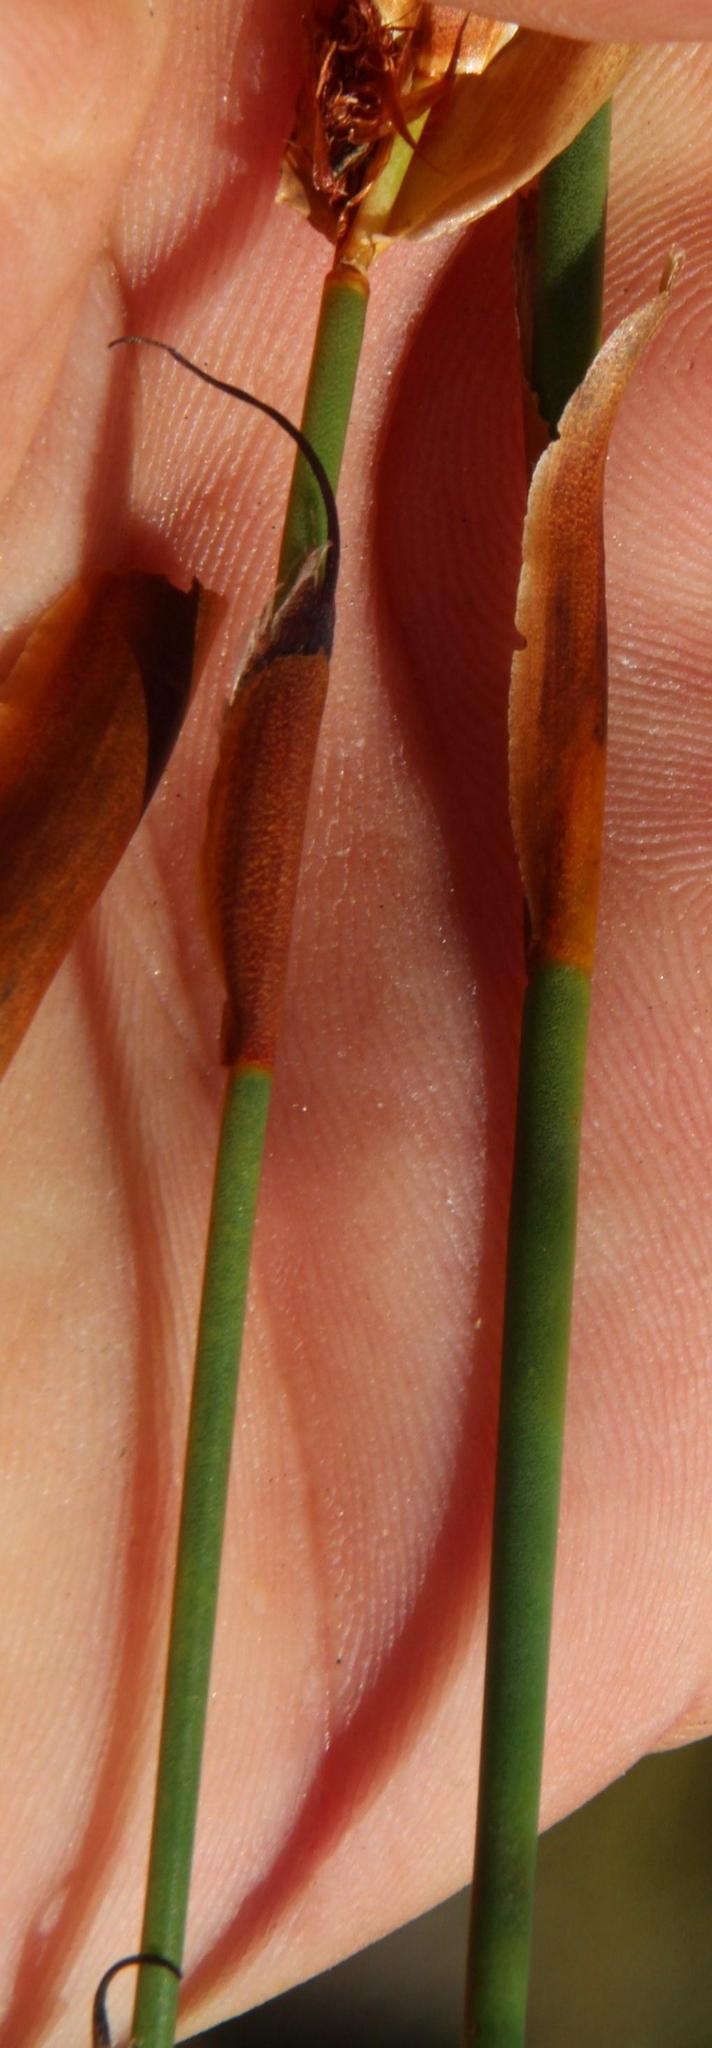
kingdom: Plantae
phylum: Tracheophyta
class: Liliopsida
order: Poales
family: Restionaceae
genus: Willdenowia
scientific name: Willdenowia teres
